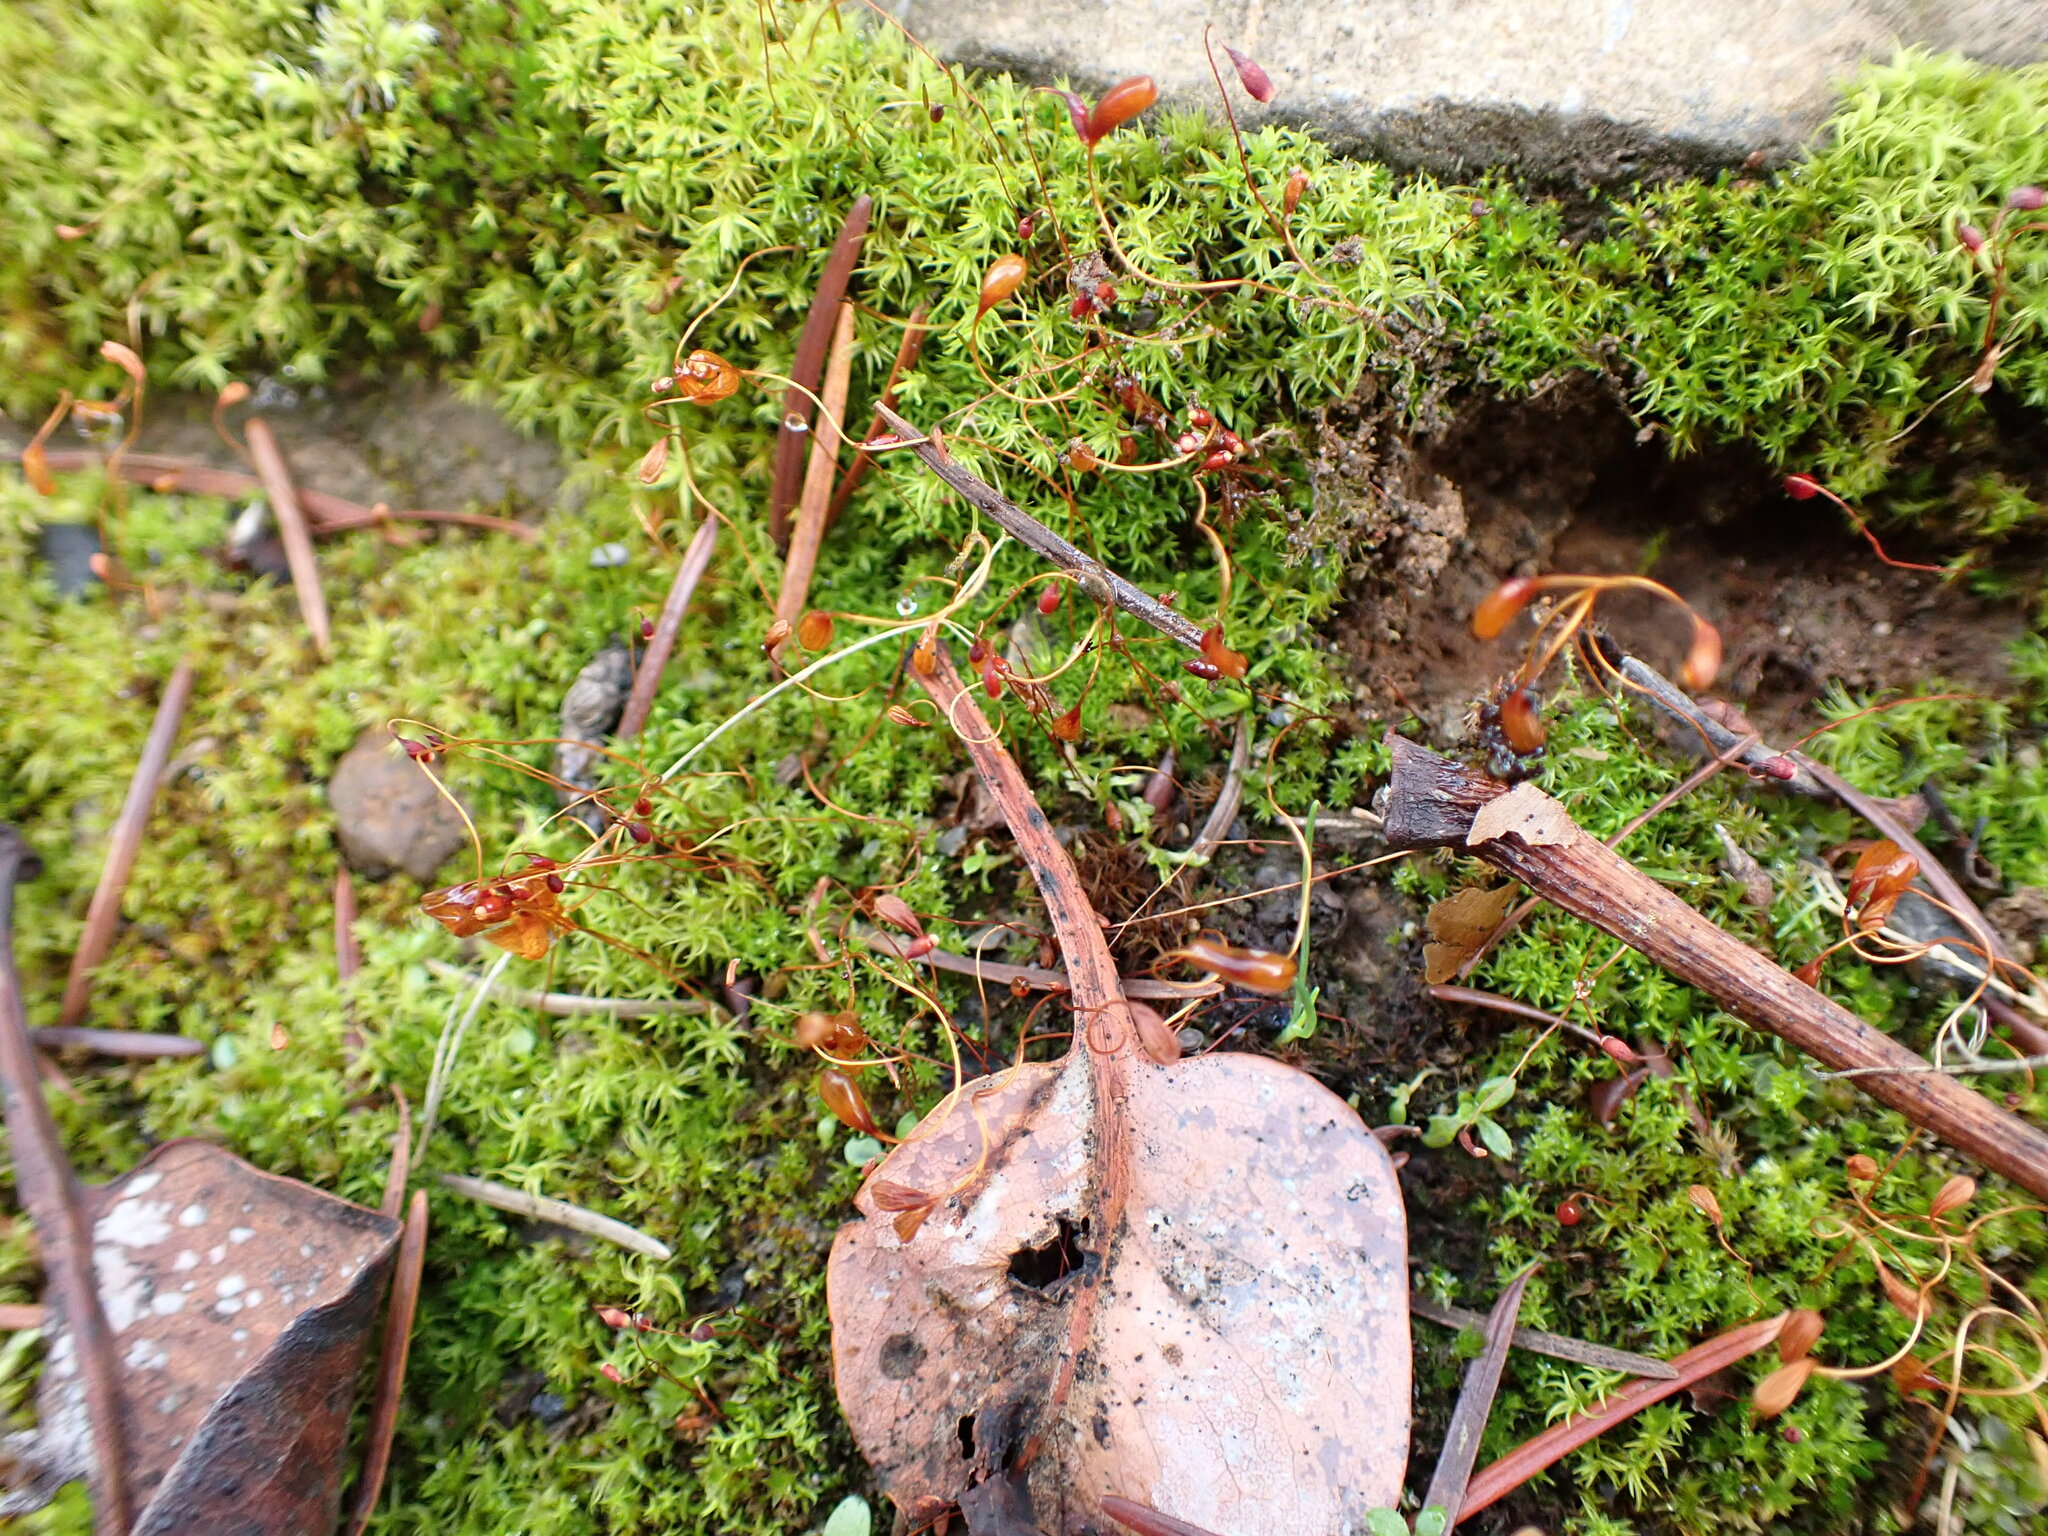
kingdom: Plantae
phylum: Bryophyta
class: Bryopsida
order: Funariales
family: Funariaceae
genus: Funaria
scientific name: Funaria hygrometrica
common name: Common cord moss
